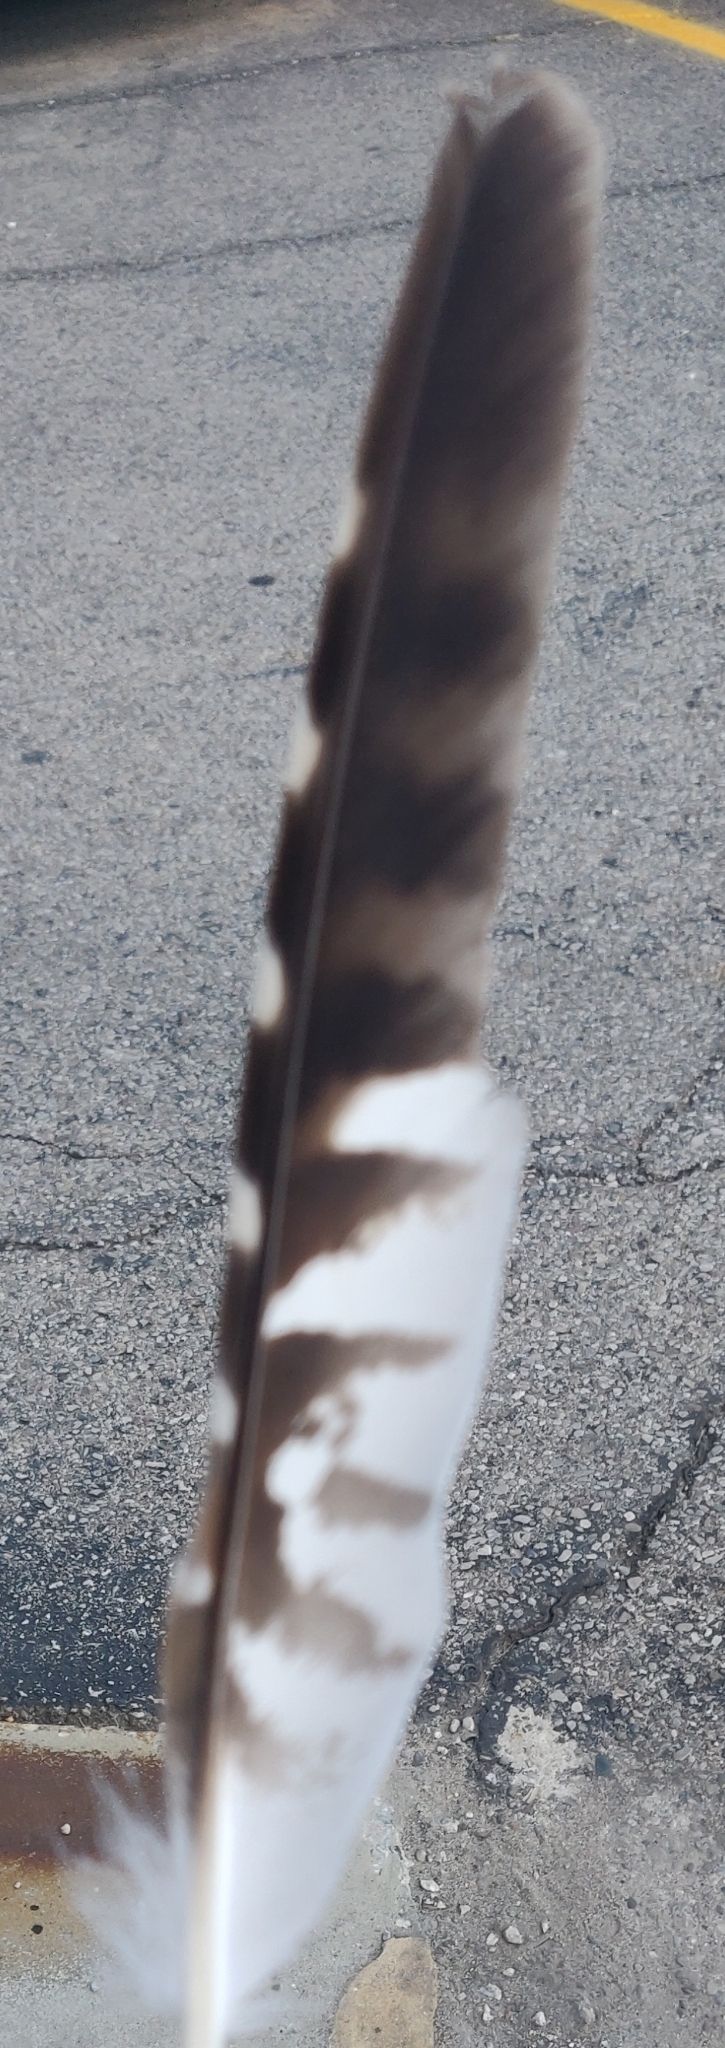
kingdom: Animalia
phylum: Chordata
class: Aves
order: Accipitriformes
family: Accipitridae
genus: Buteo
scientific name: Buteo lineatus
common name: Red-shouldered hawk
